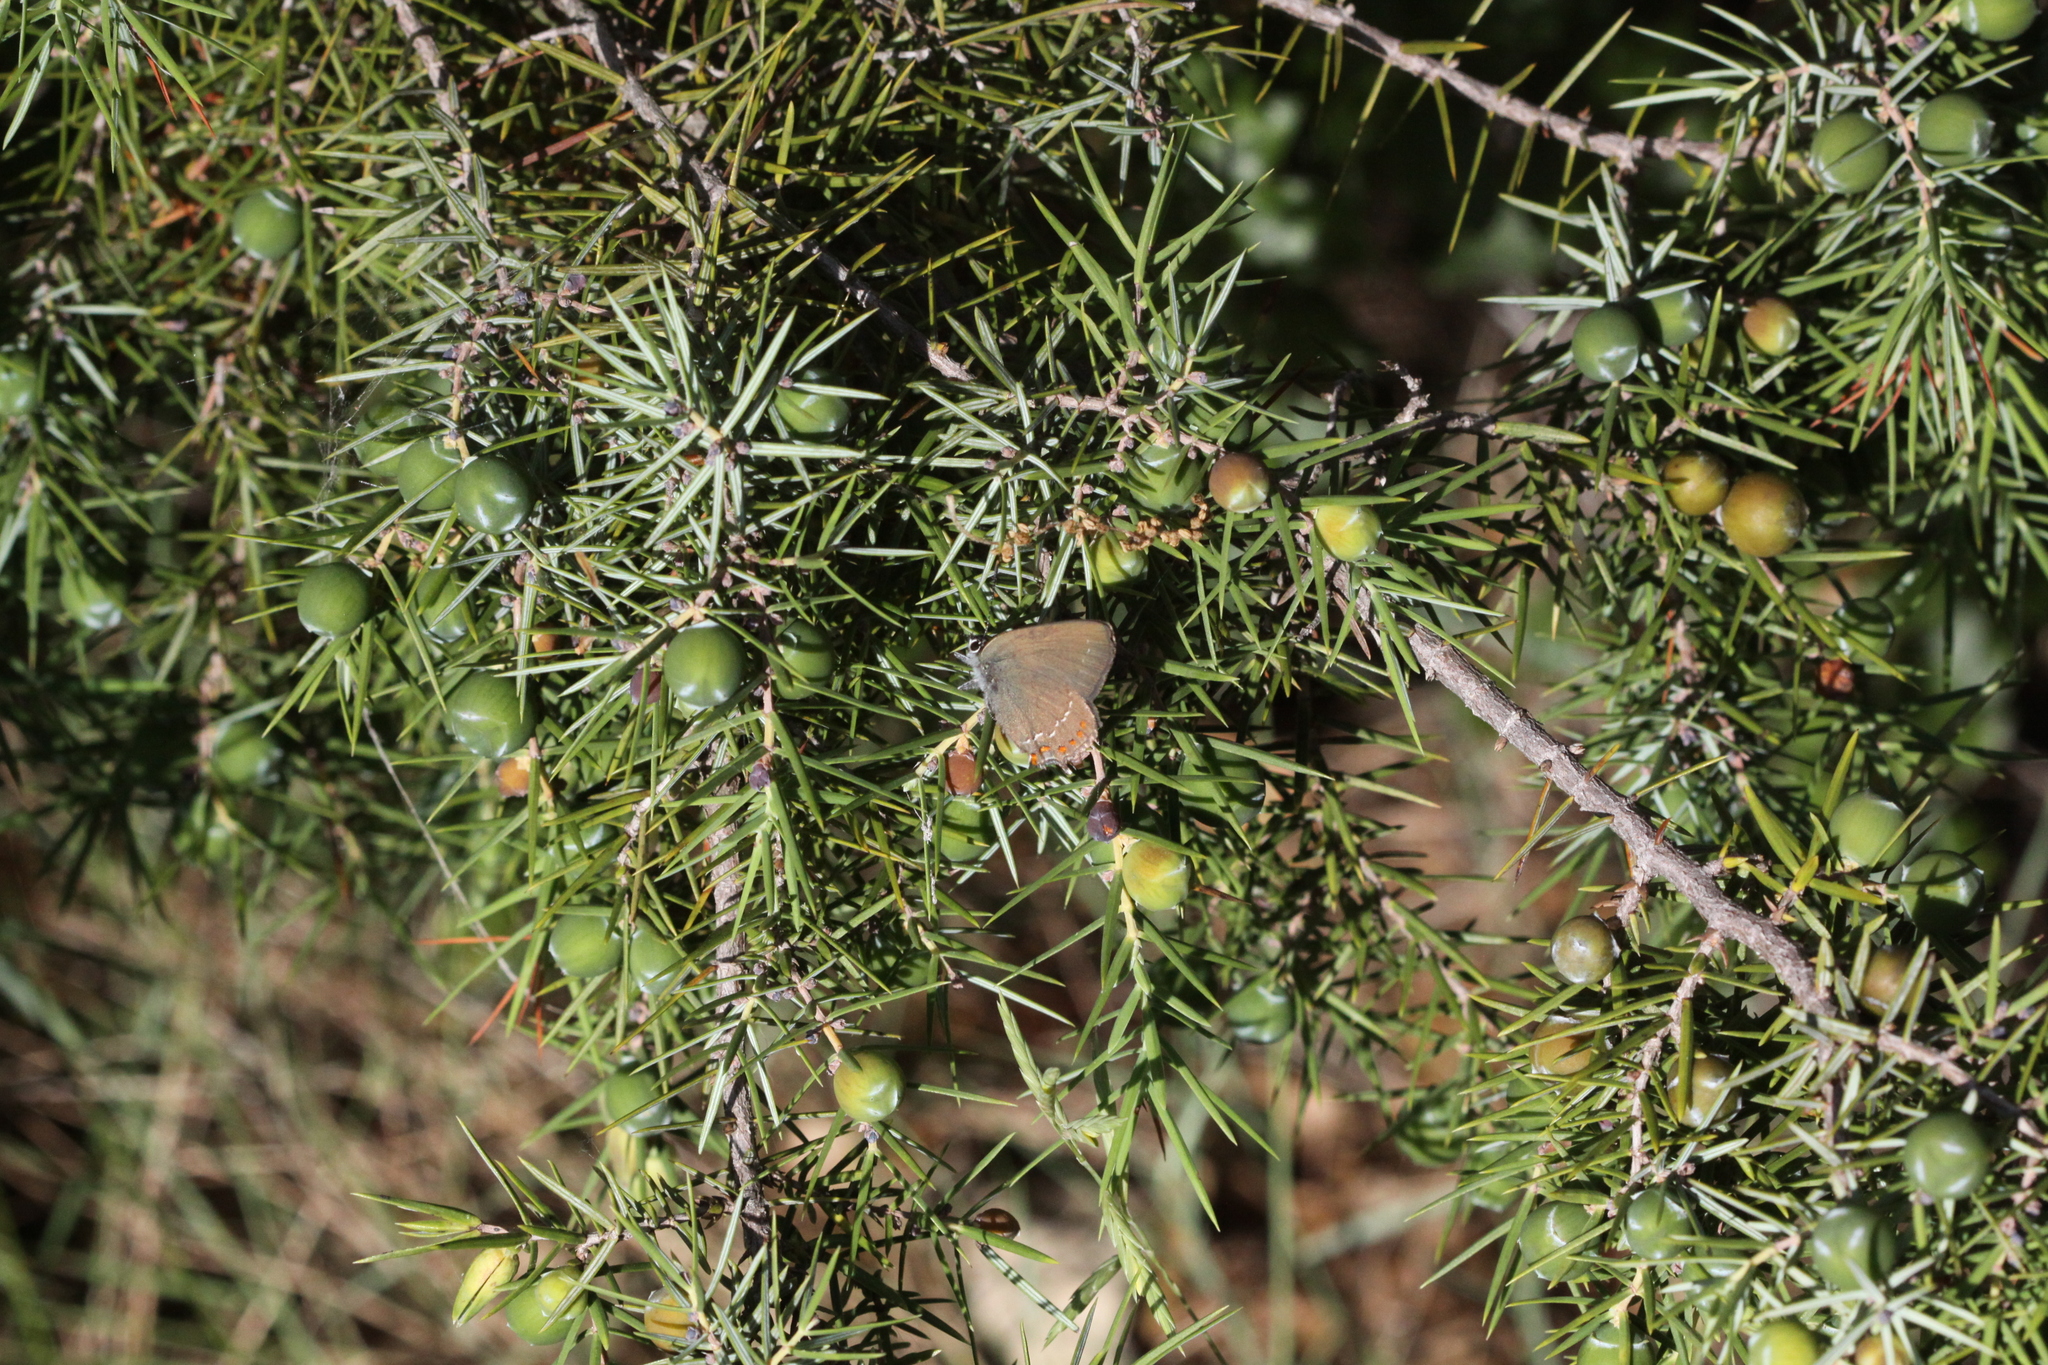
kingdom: Animalia
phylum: Arthropoda
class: Insecta
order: Lepidoptera
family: Lycaenidae
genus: Fixsenia
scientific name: Fixsenia esculi
